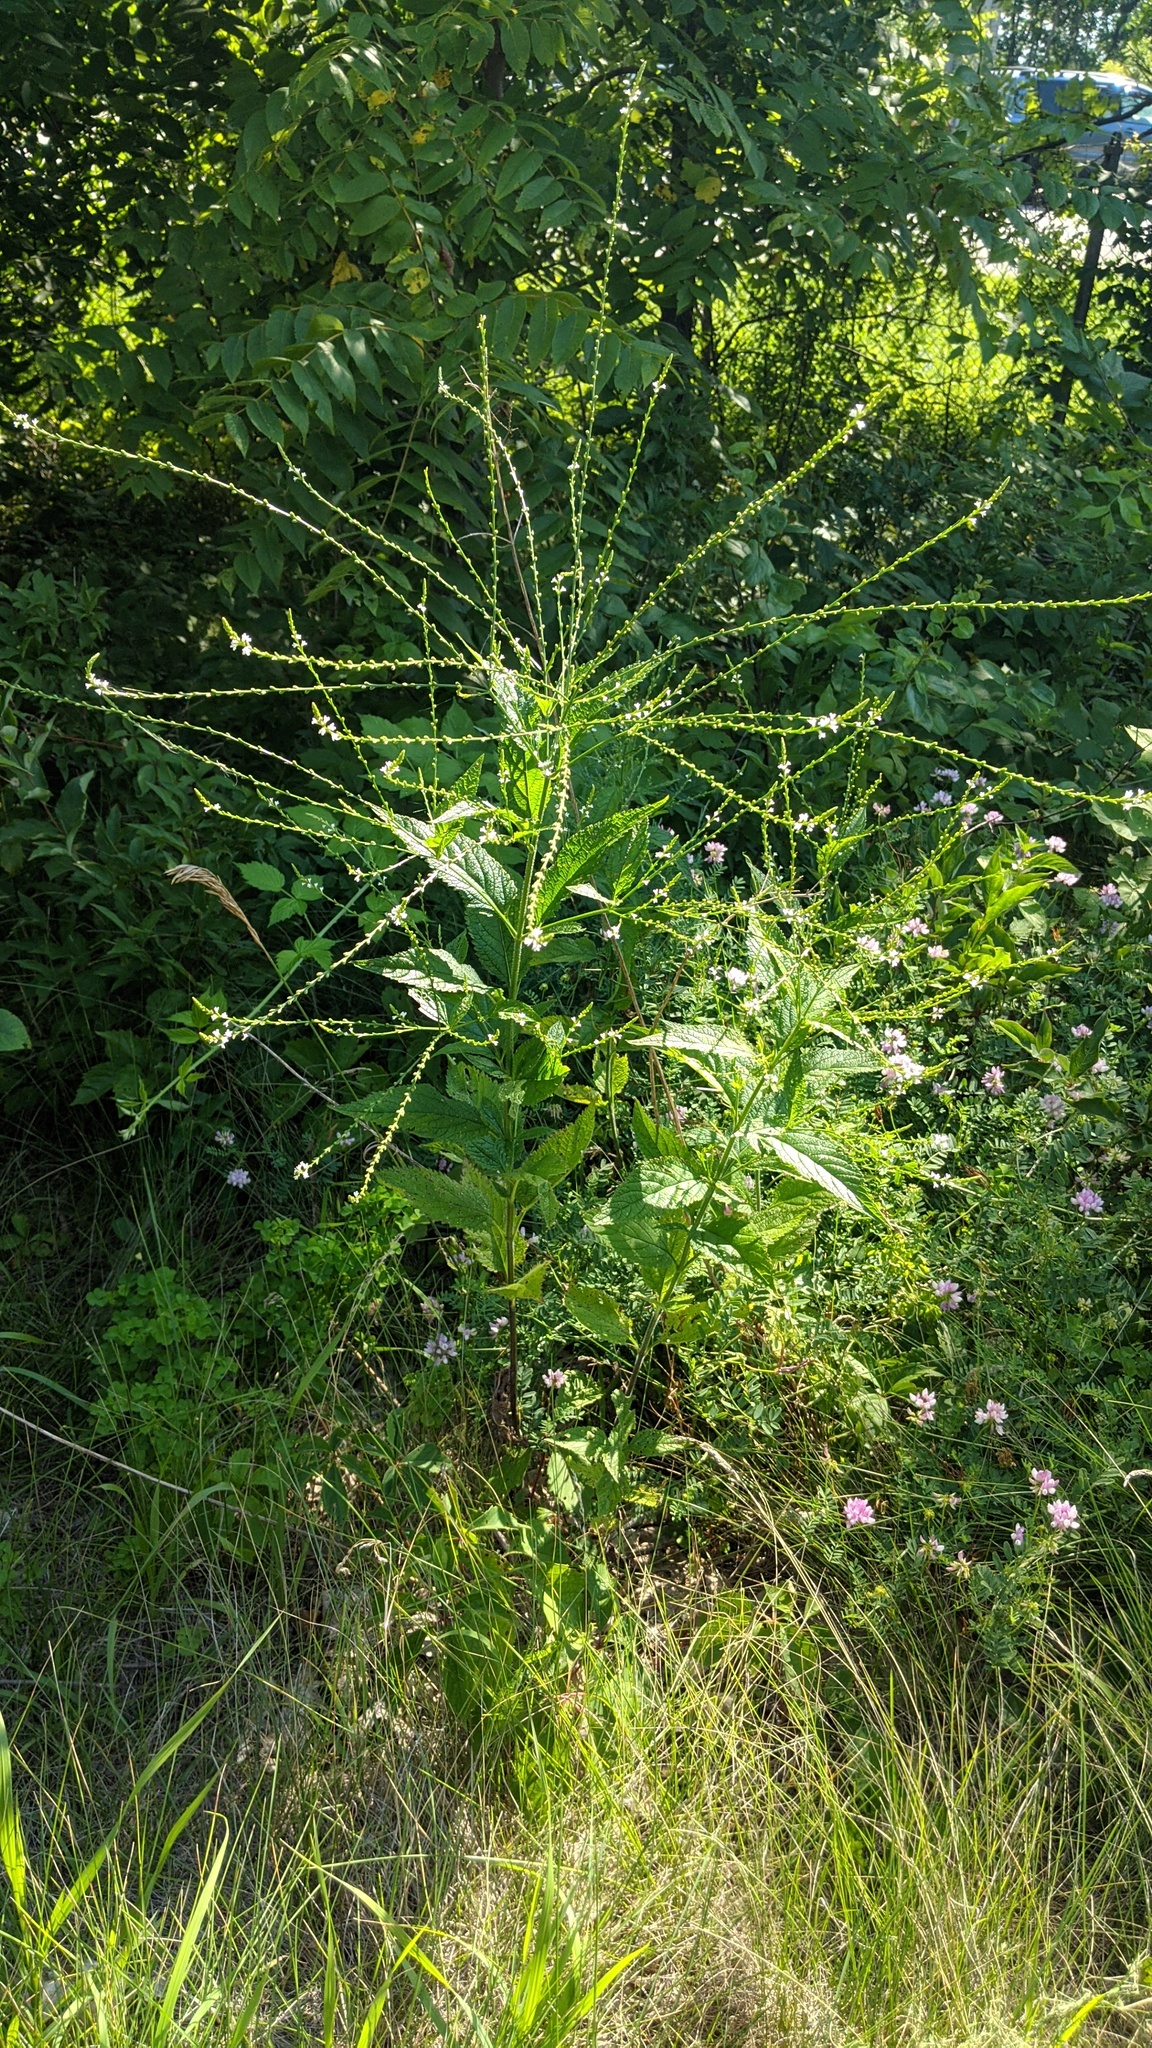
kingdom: Plantae
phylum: Tracheophyta
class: Magnoliopsida
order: Lamiales
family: Verbenaceae
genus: Verbena
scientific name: Verbena urticifolia
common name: Nettle-leaved vervain
